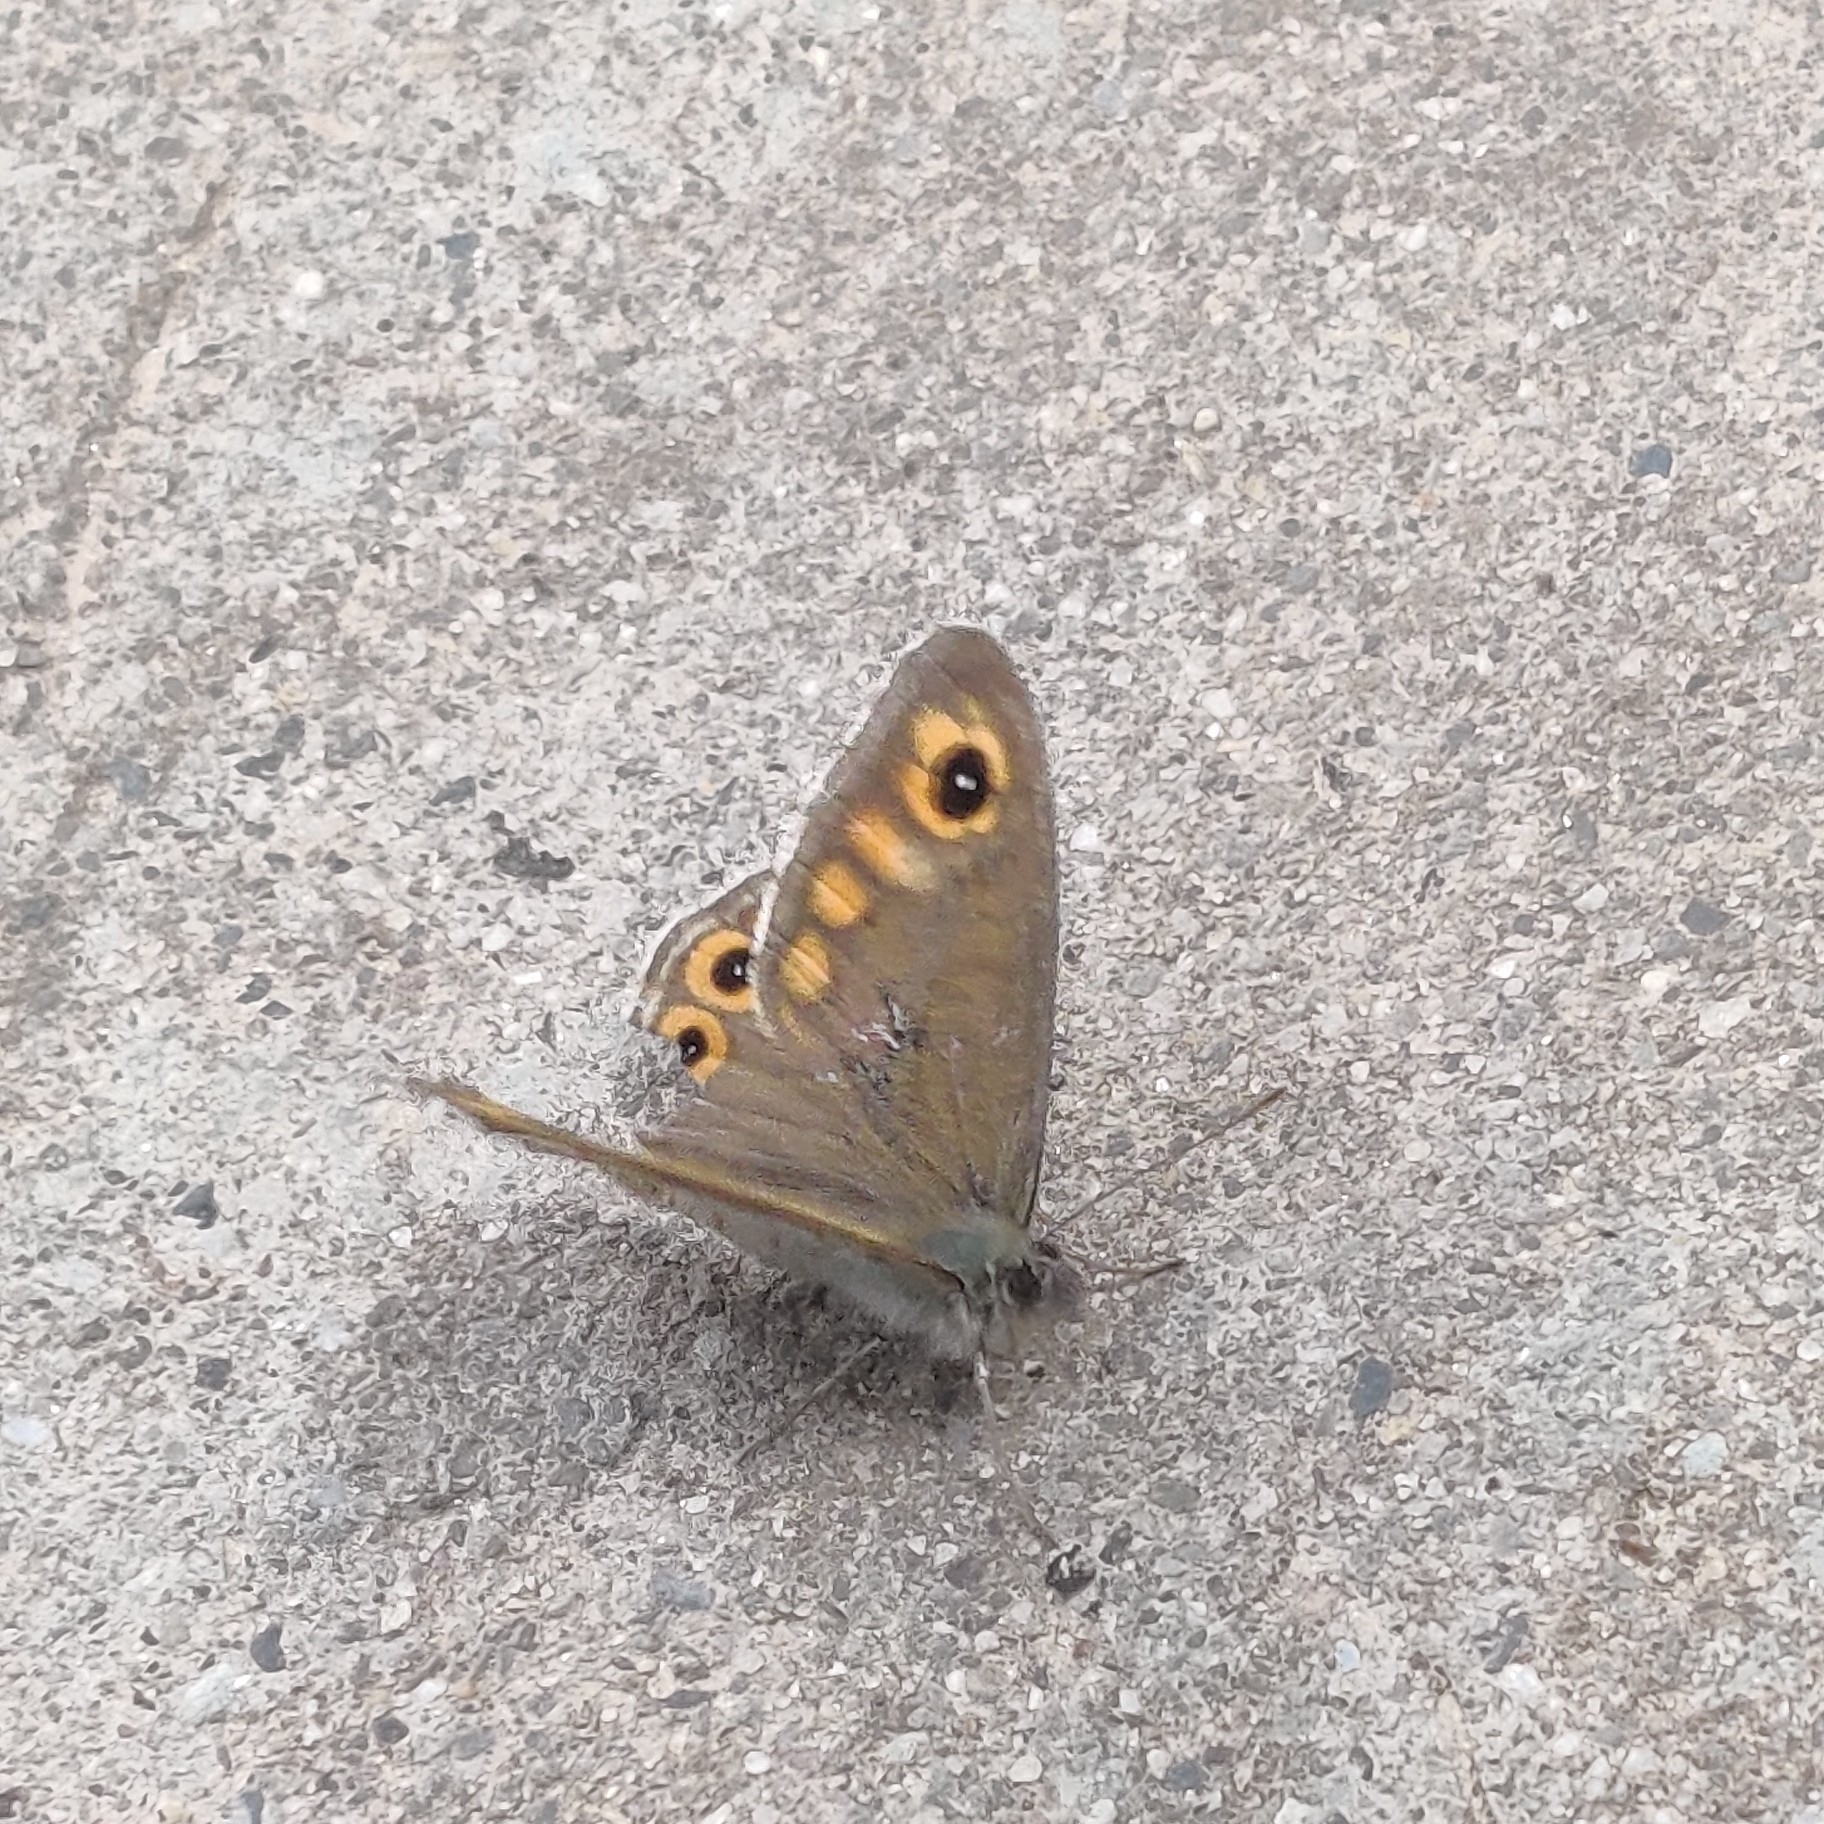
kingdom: Animalia
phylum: Arthropoda
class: Insecta
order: Lepidoptera
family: Nymphalidae
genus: Pararge
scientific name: Pararge Lasiommata schakra
